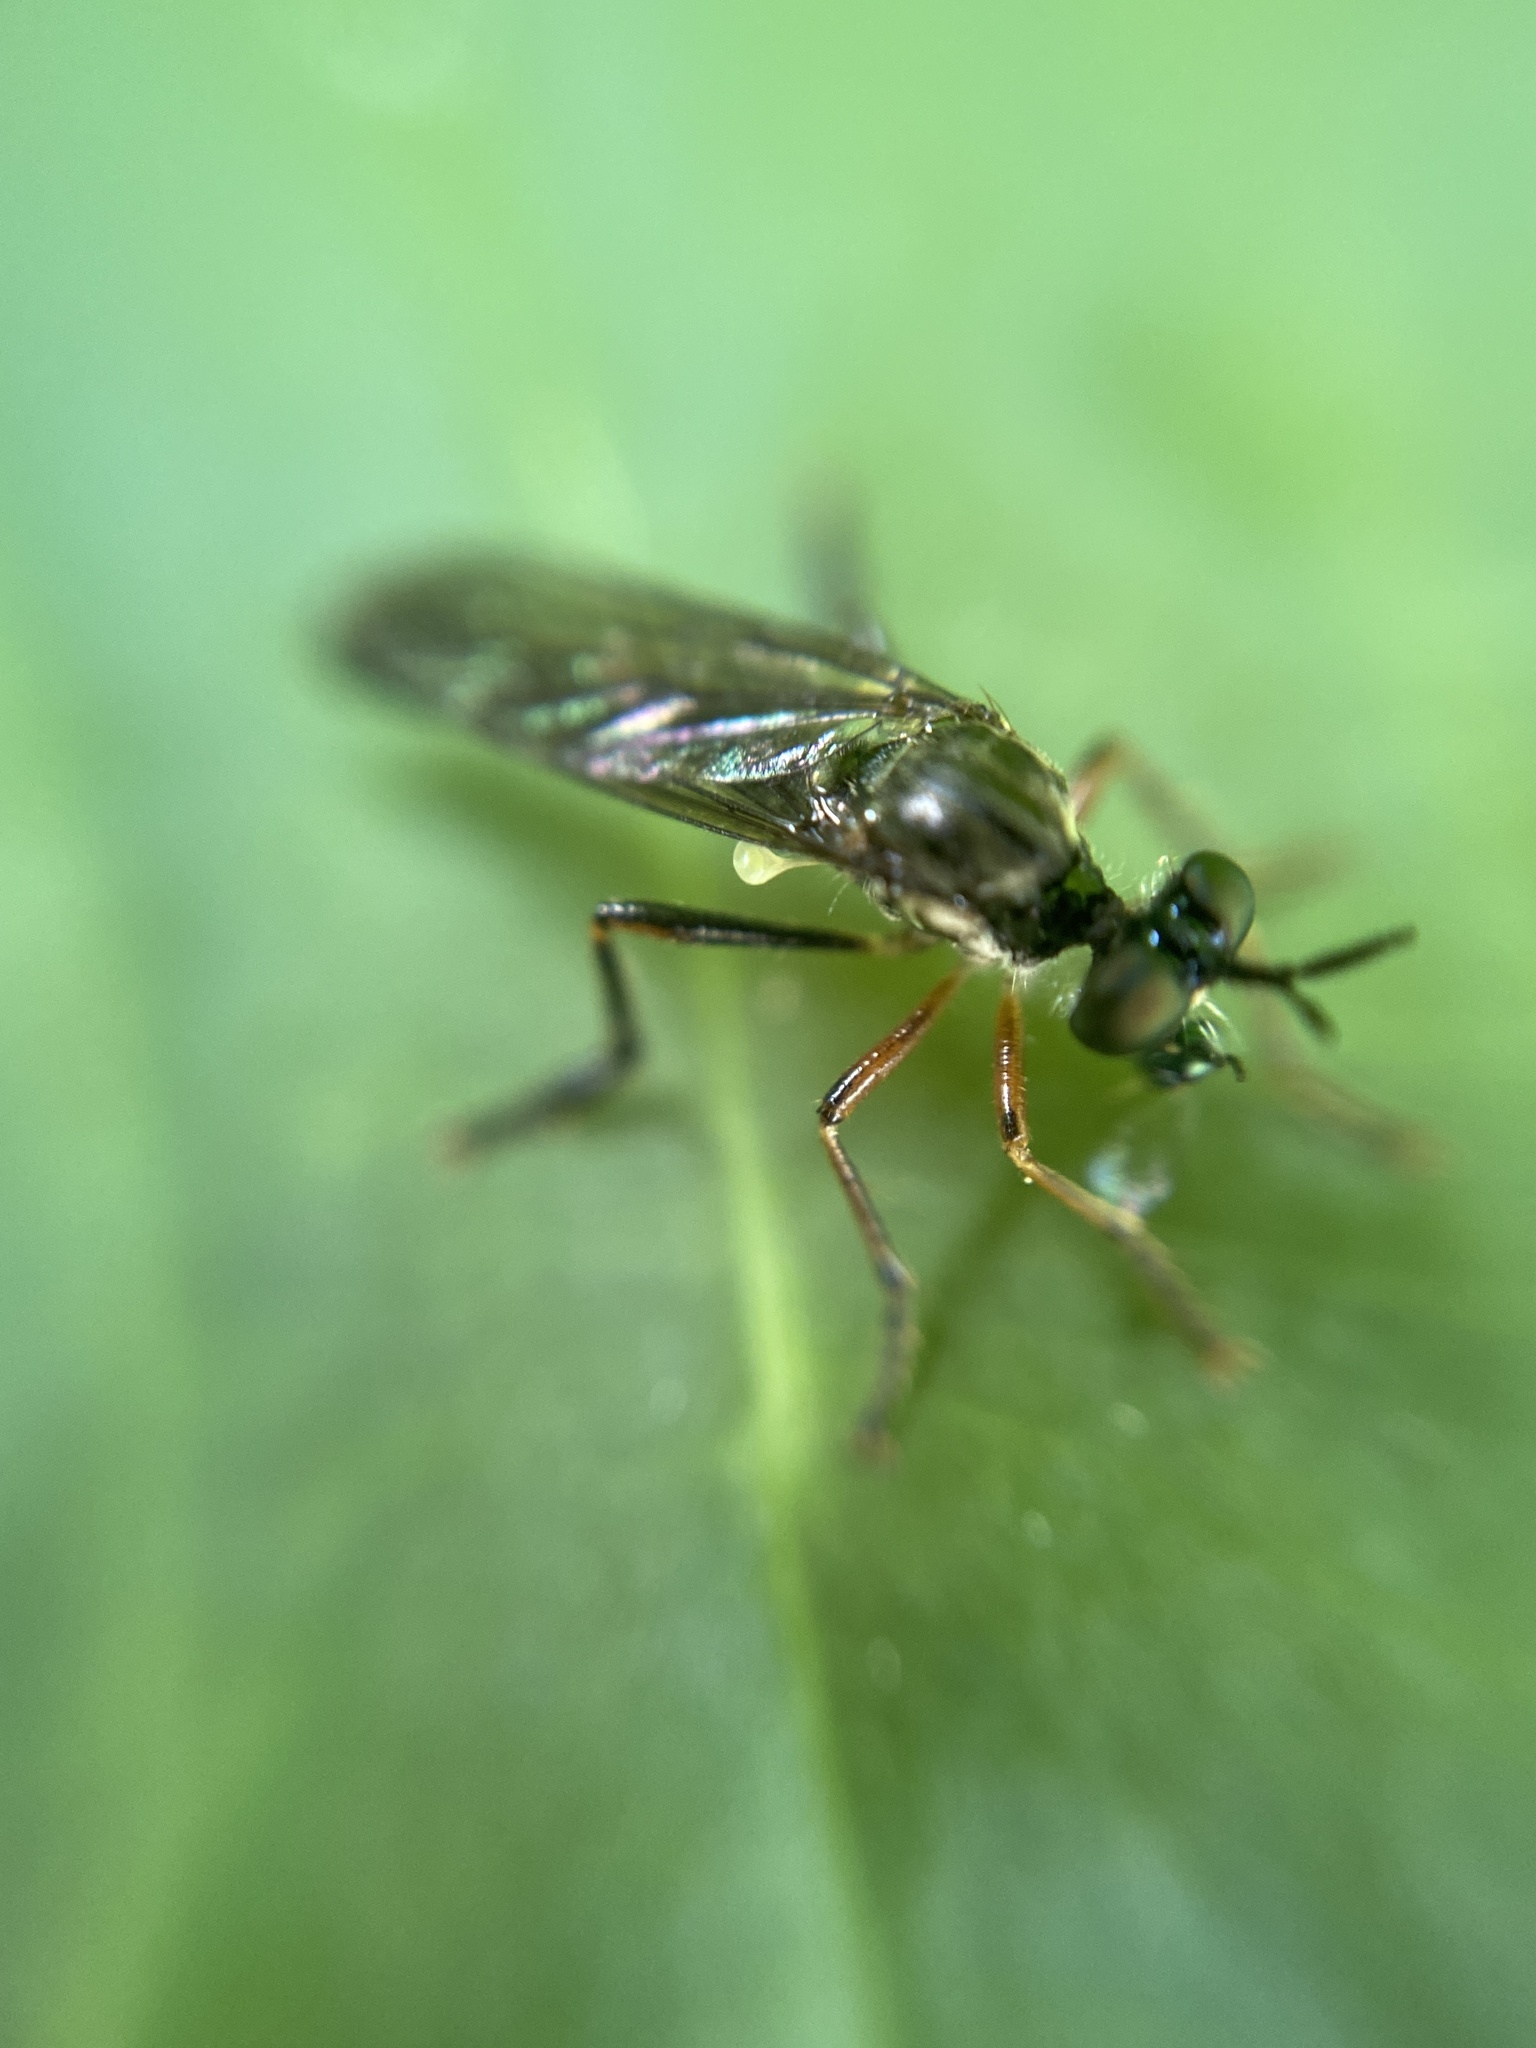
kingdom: Animalia
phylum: Arthropoda
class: Insecta
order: Diptera
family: Asilidae
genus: Dioctria
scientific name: Dioctria hyalipennis
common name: Stripe-legged robberfly
